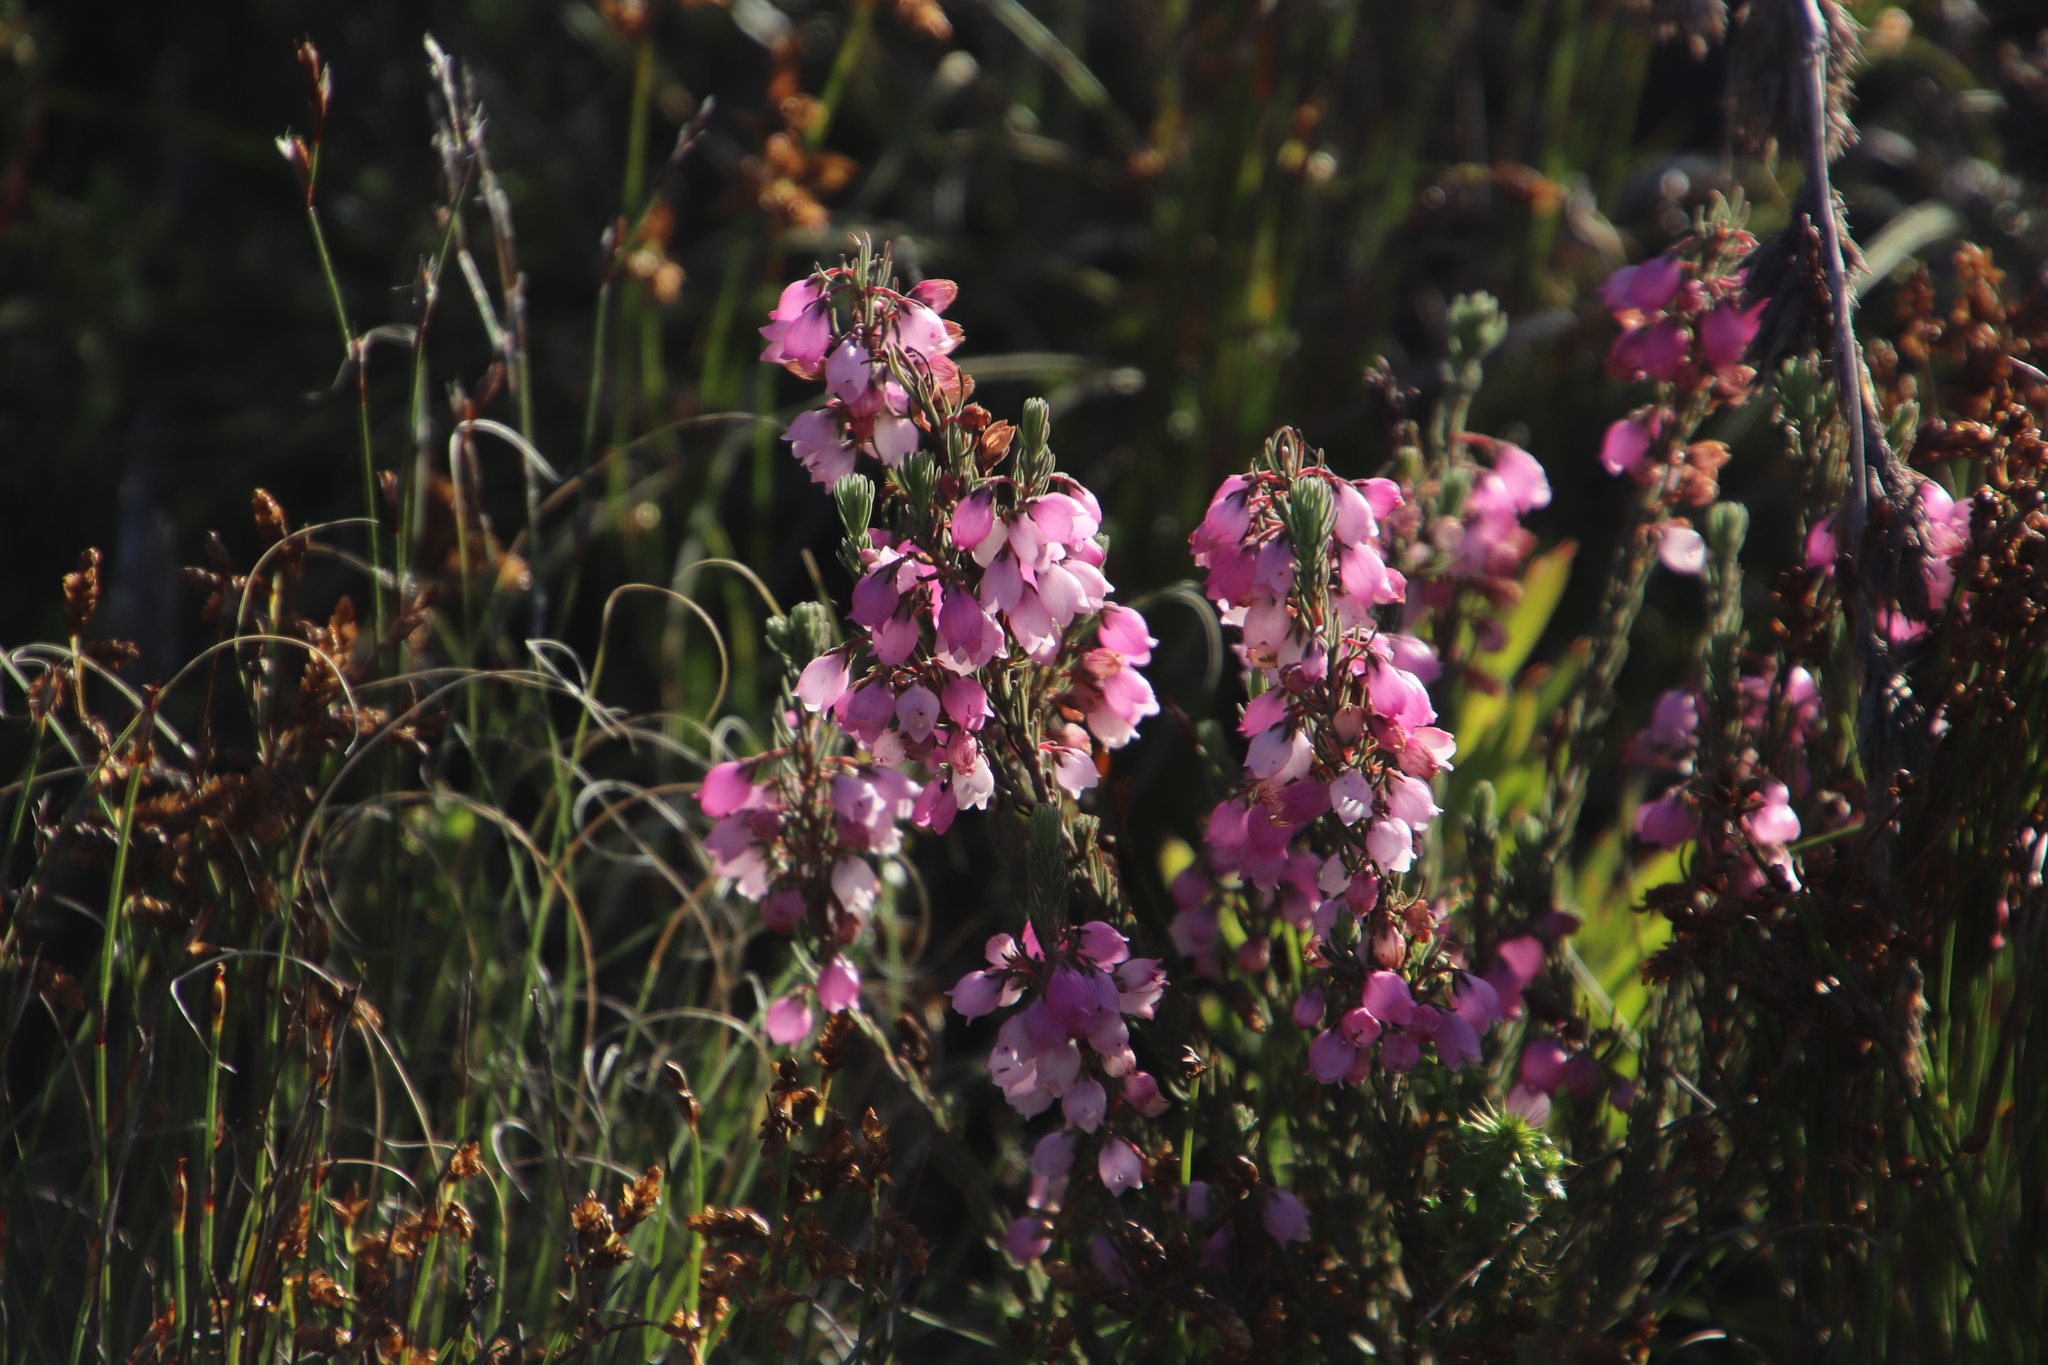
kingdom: Plantae
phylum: Tracheophyta
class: Magnoliopsida
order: Ericales
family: Ericaceae
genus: Erica
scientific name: Erica viscaria
